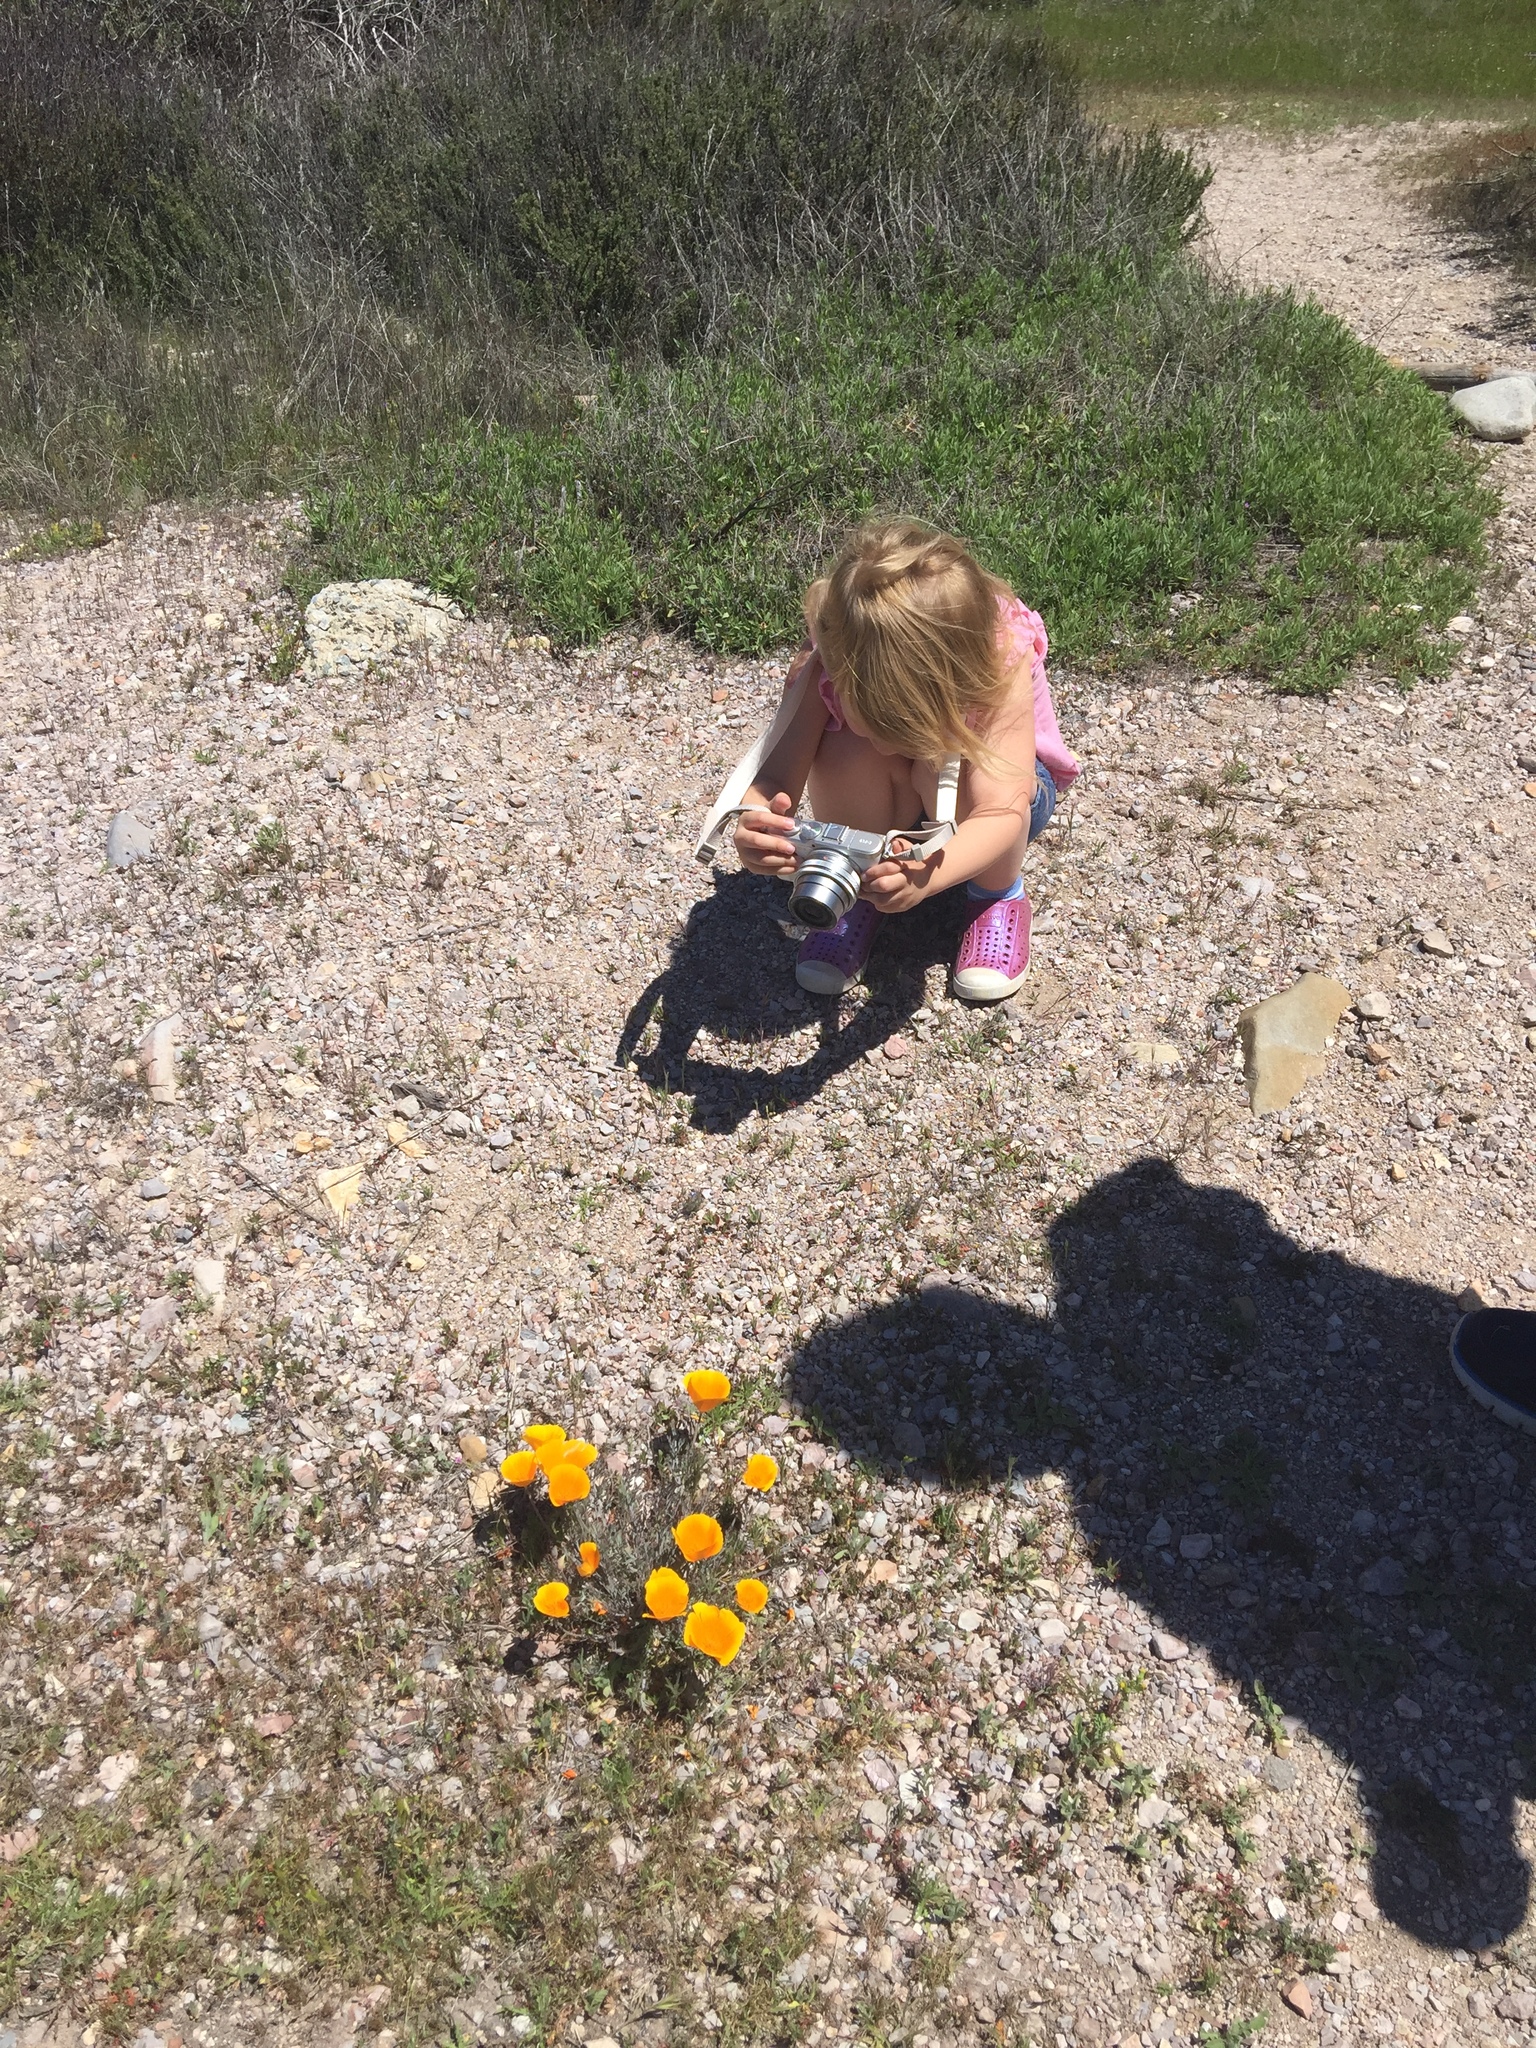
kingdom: Plantae
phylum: Tracheophyta
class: Magnoliopsida
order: Ranunculales
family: Papaveraceae
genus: Eschscholzia
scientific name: Eschscholzia californica
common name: California poppy
